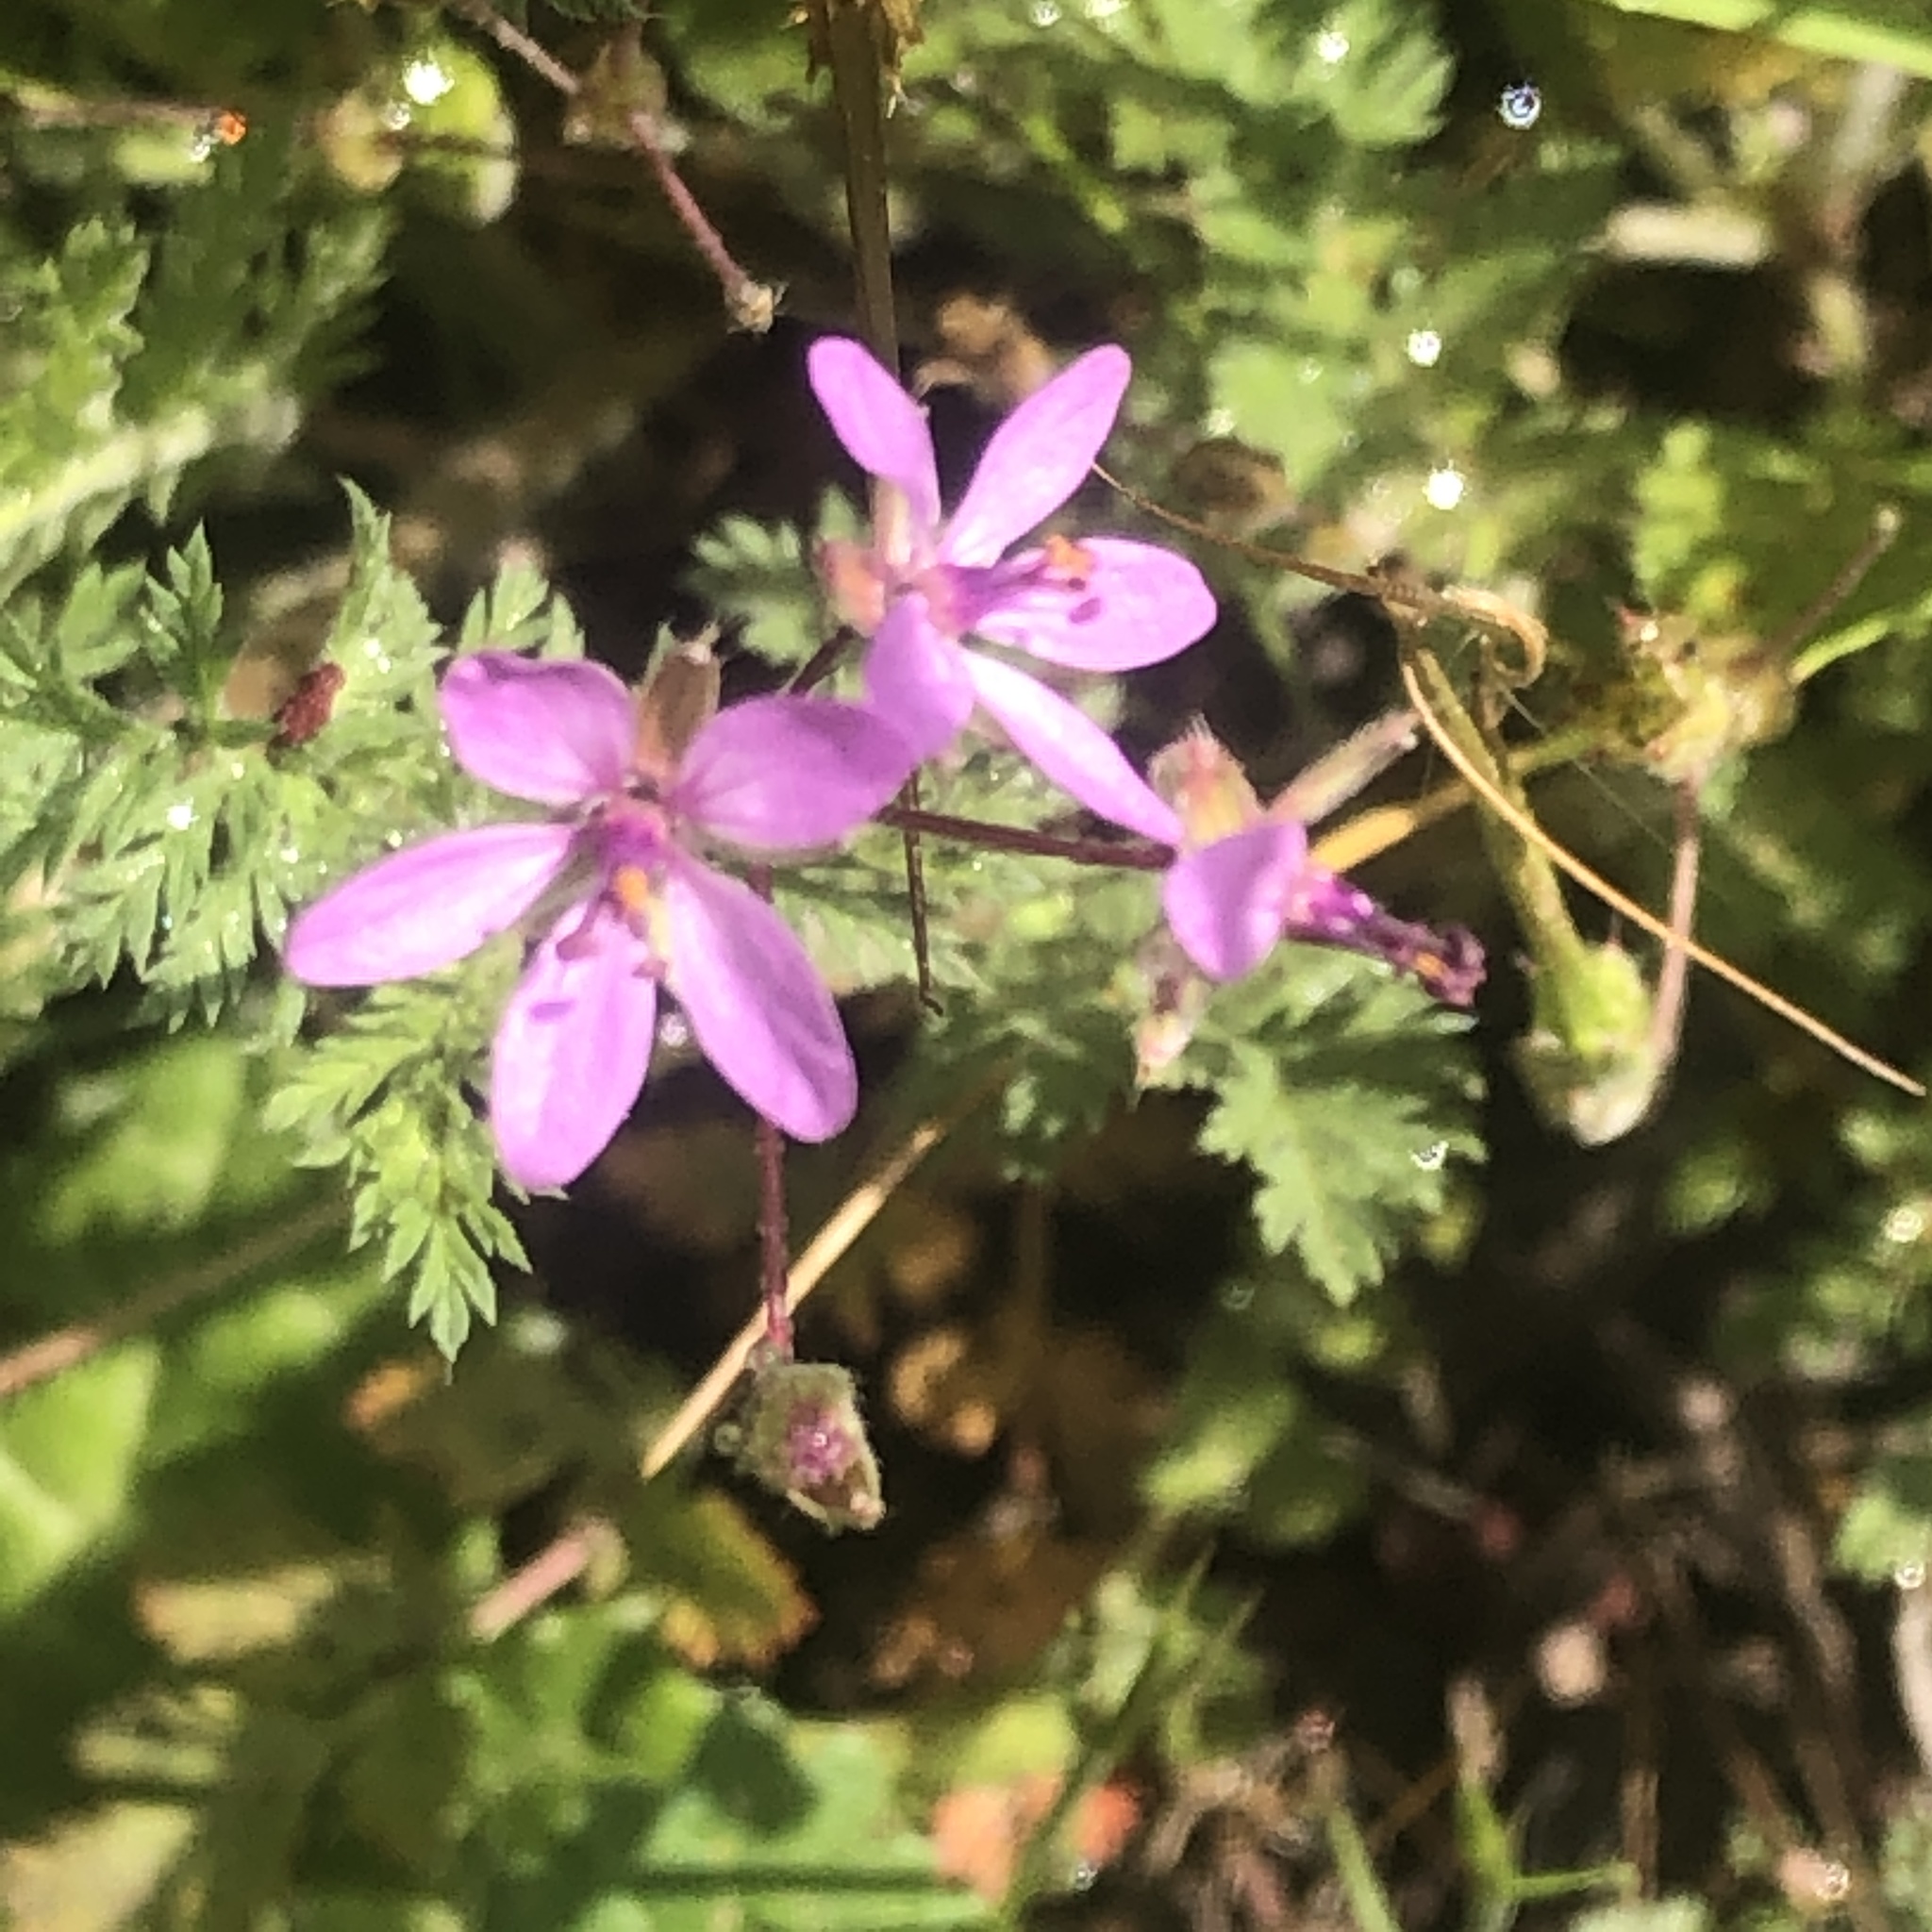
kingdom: Plantae
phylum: Tracheophyta
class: Magnoliopsida
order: Geraniales
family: Geraniaceae
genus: Erodium
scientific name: Erodium cicutarium
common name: Common stork's-bill
